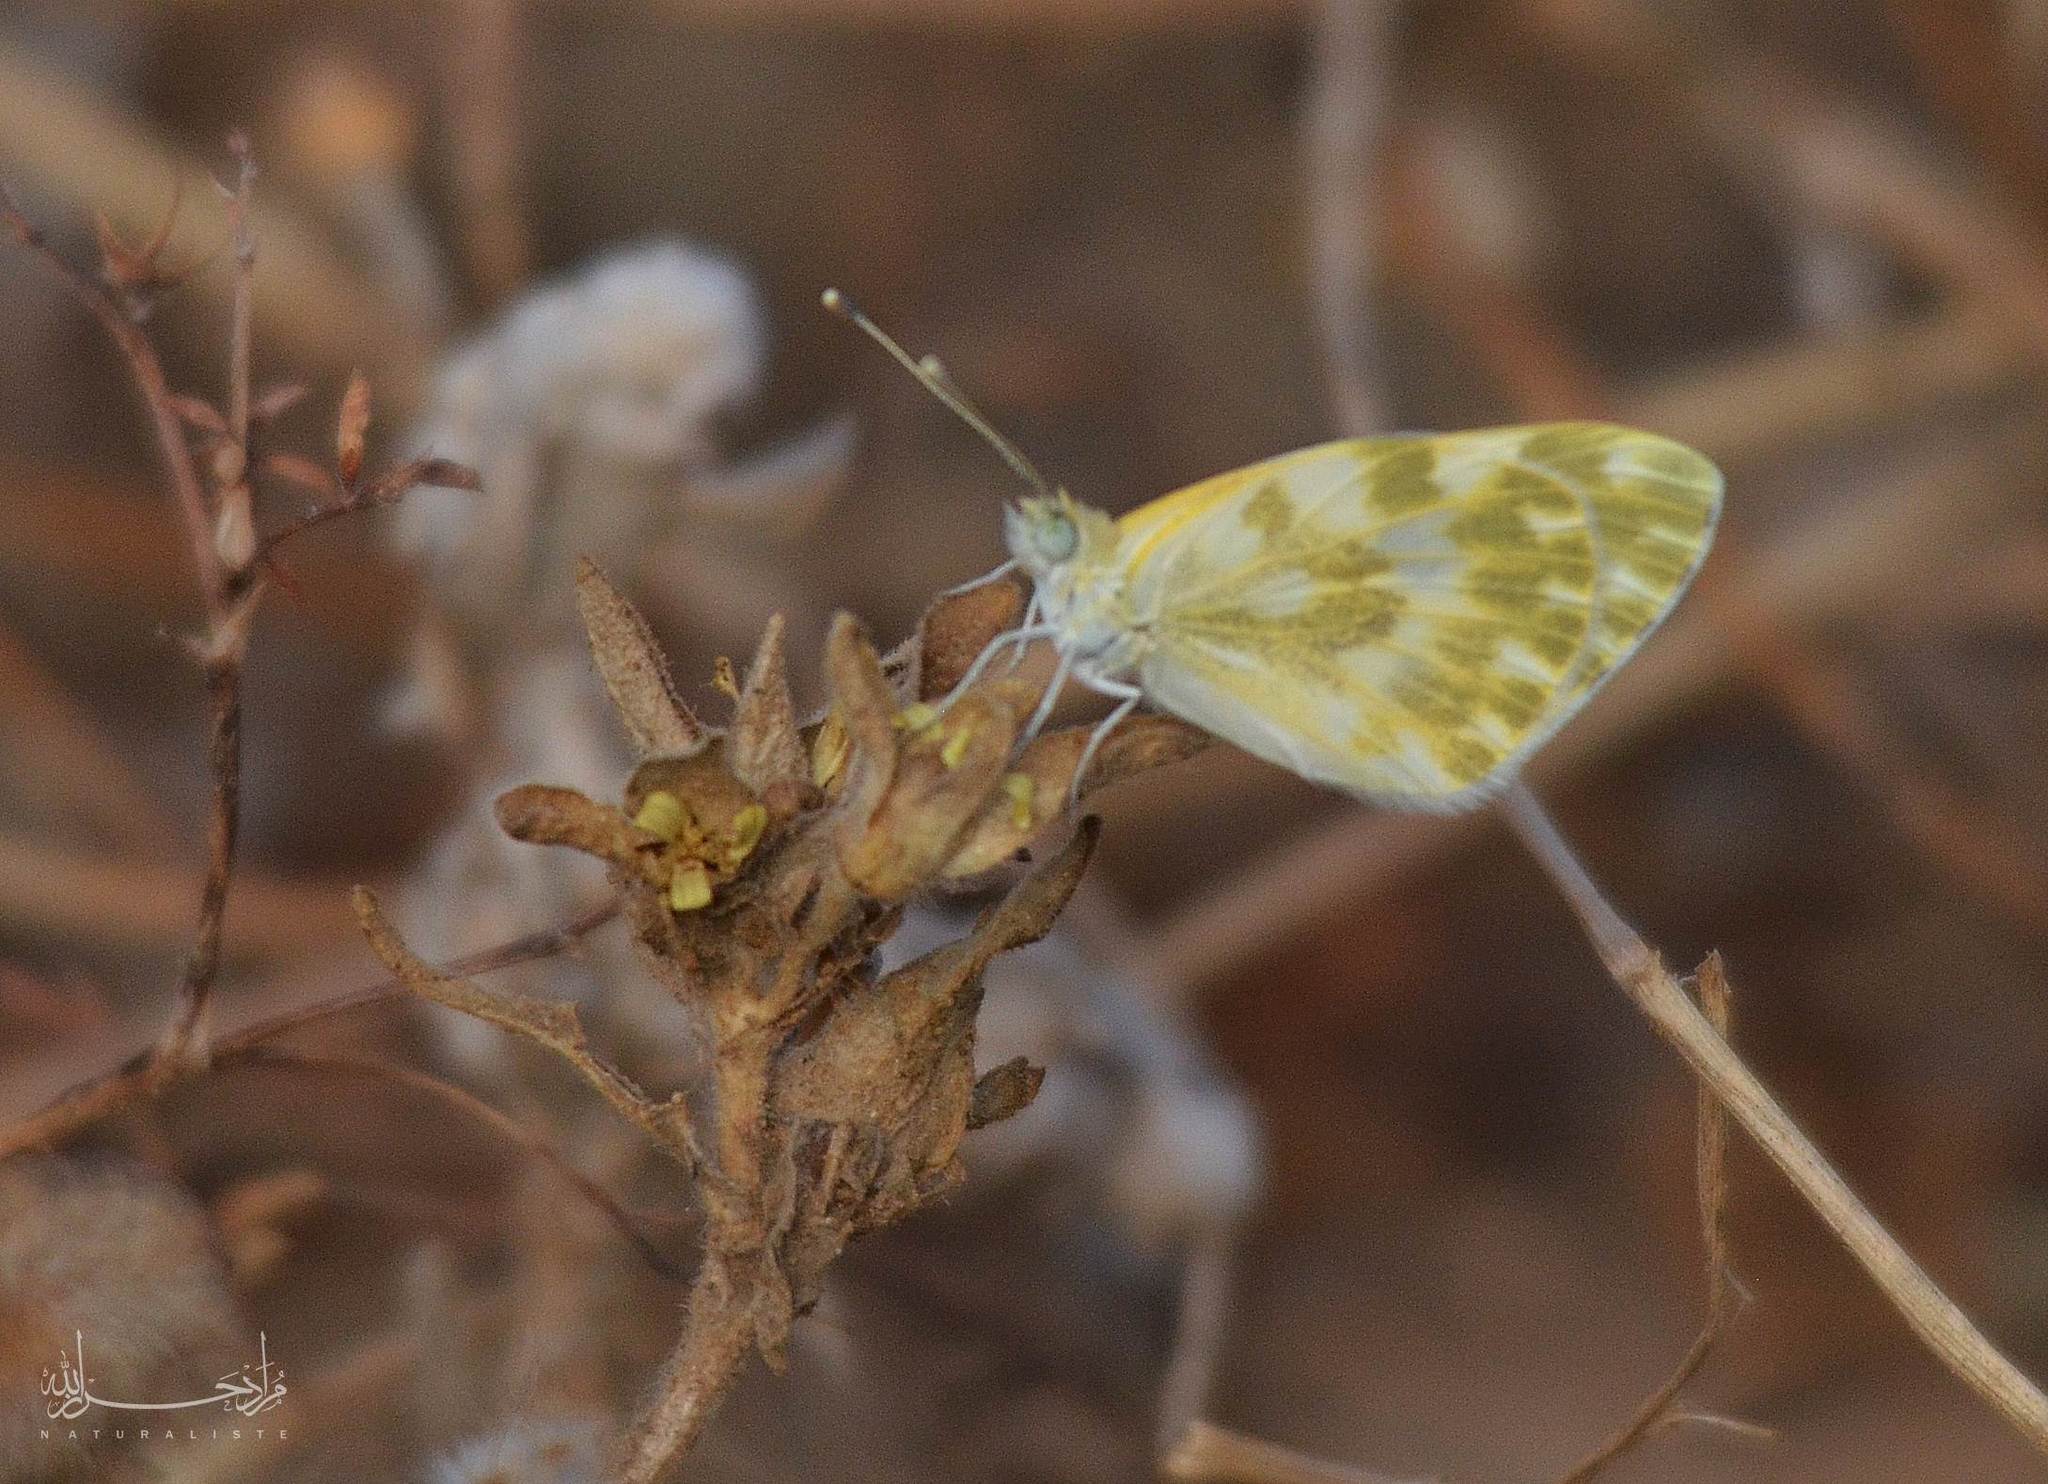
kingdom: Animalia
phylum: Arthropoda
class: Insecta
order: Lepidoptera
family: Pieridae
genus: Pontia
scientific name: Pontia daplidice
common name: Bath white
